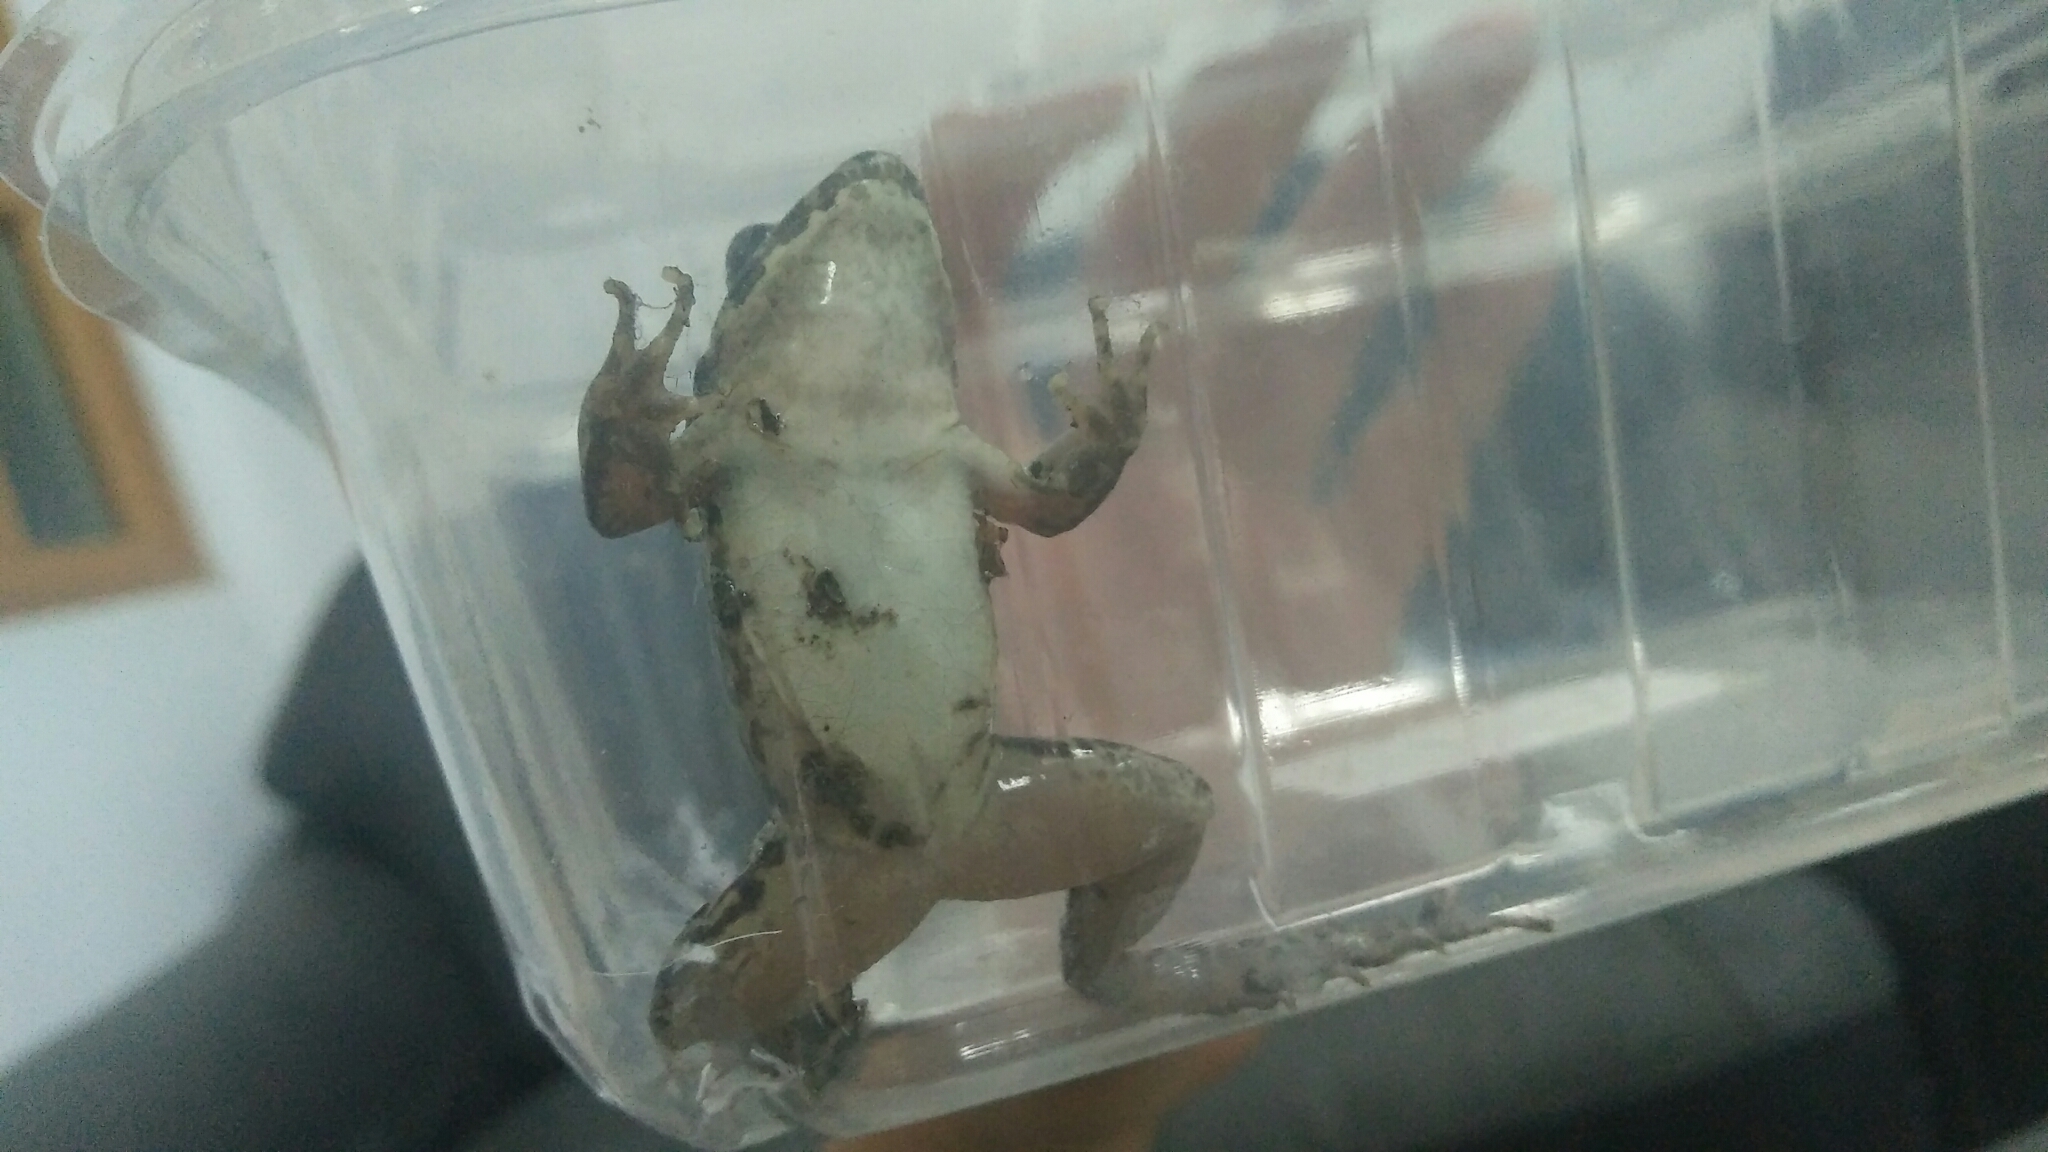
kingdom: Animalia
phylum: Chordata
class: Amphibia
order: Anura
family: Dicroglossidae
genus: Fejervarya
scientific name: Fejervarya limnocharis
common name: Asian grass frog/common pond frog/field frog/grass frog/indian rice frog
